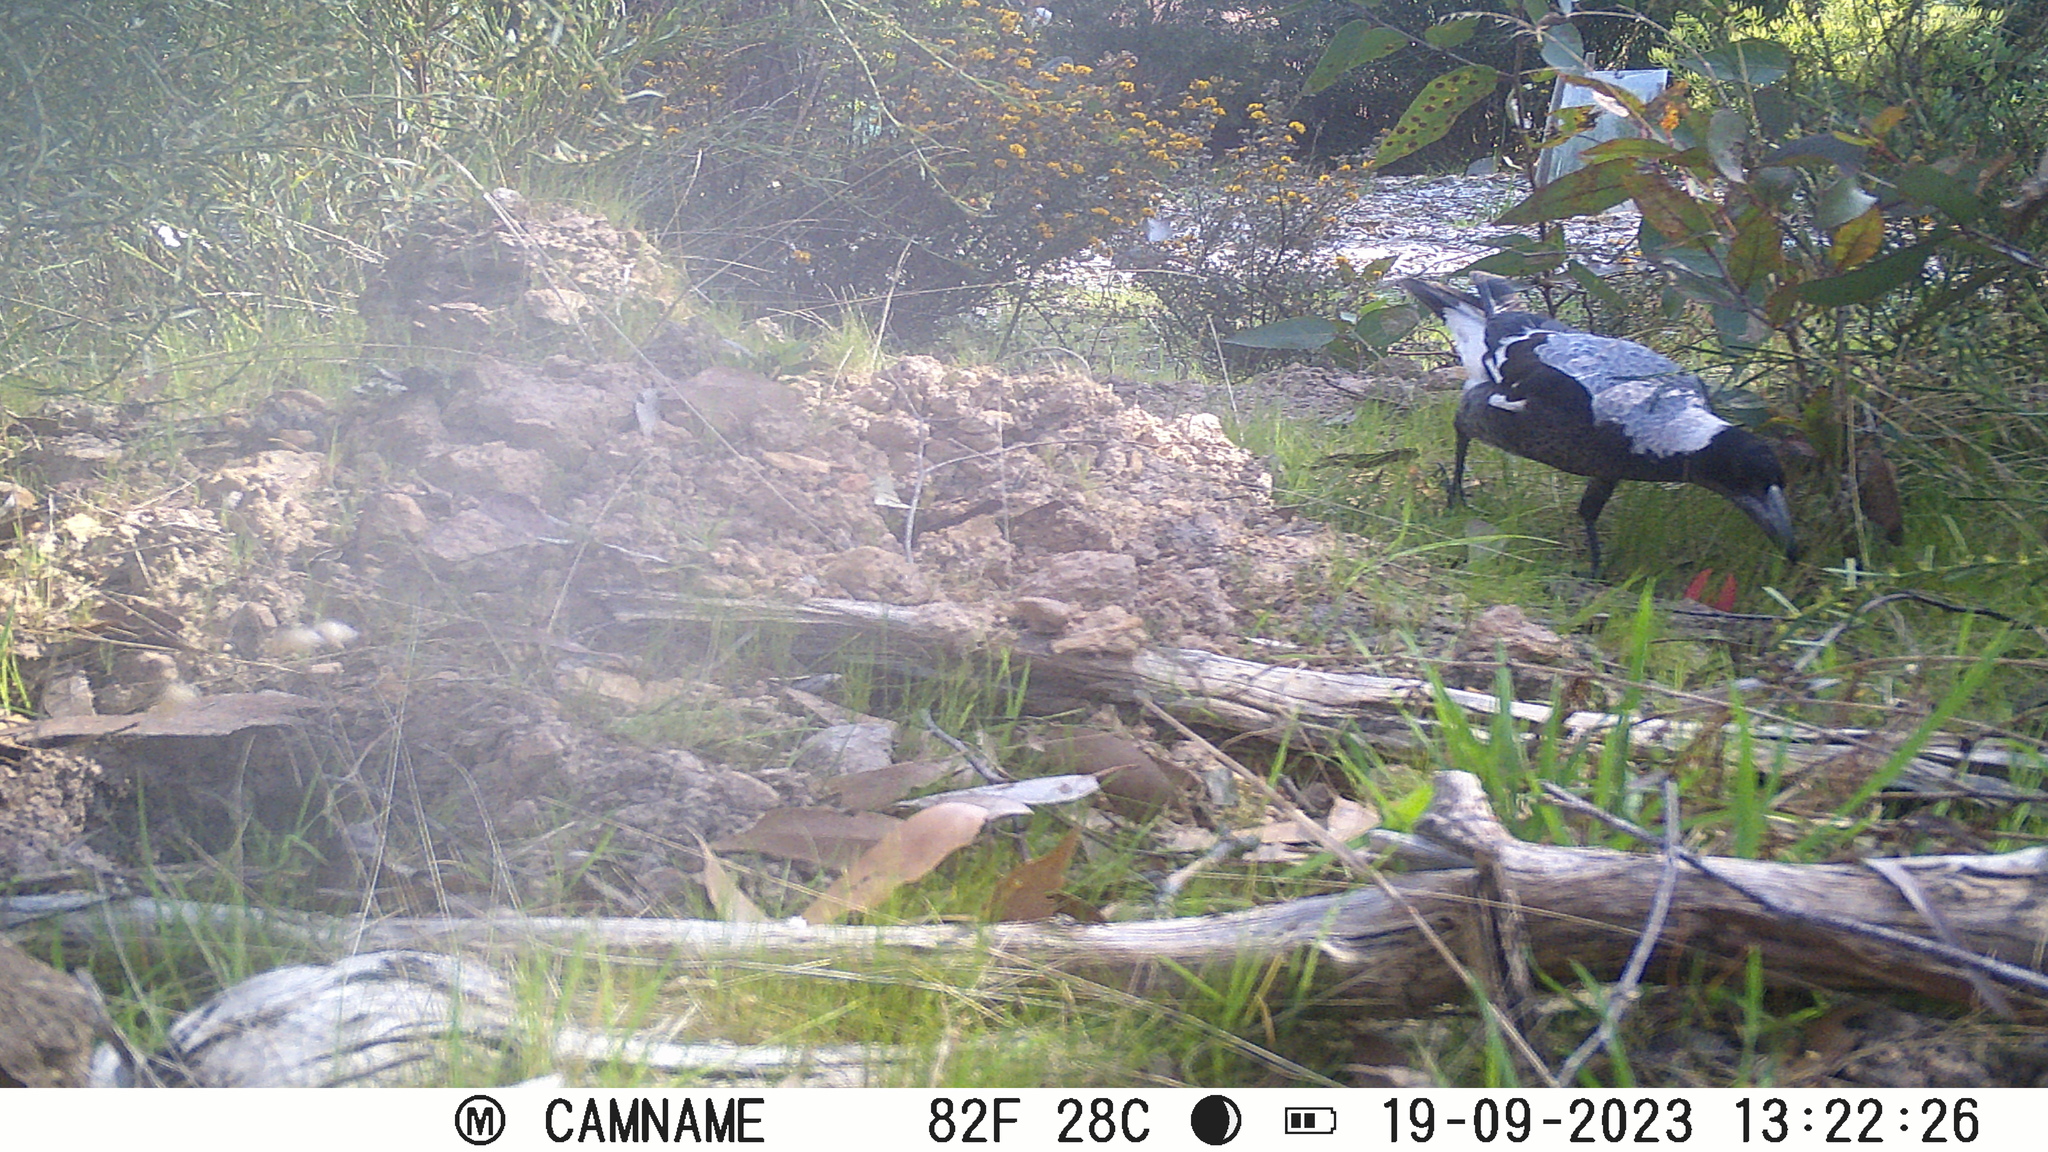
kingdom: Animalia
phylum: Chordata
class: Aves
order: Passeriformes
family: Cracticidae
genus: Gymnorhina
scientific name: Gymnorhina tibicen
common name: Australian magpie
